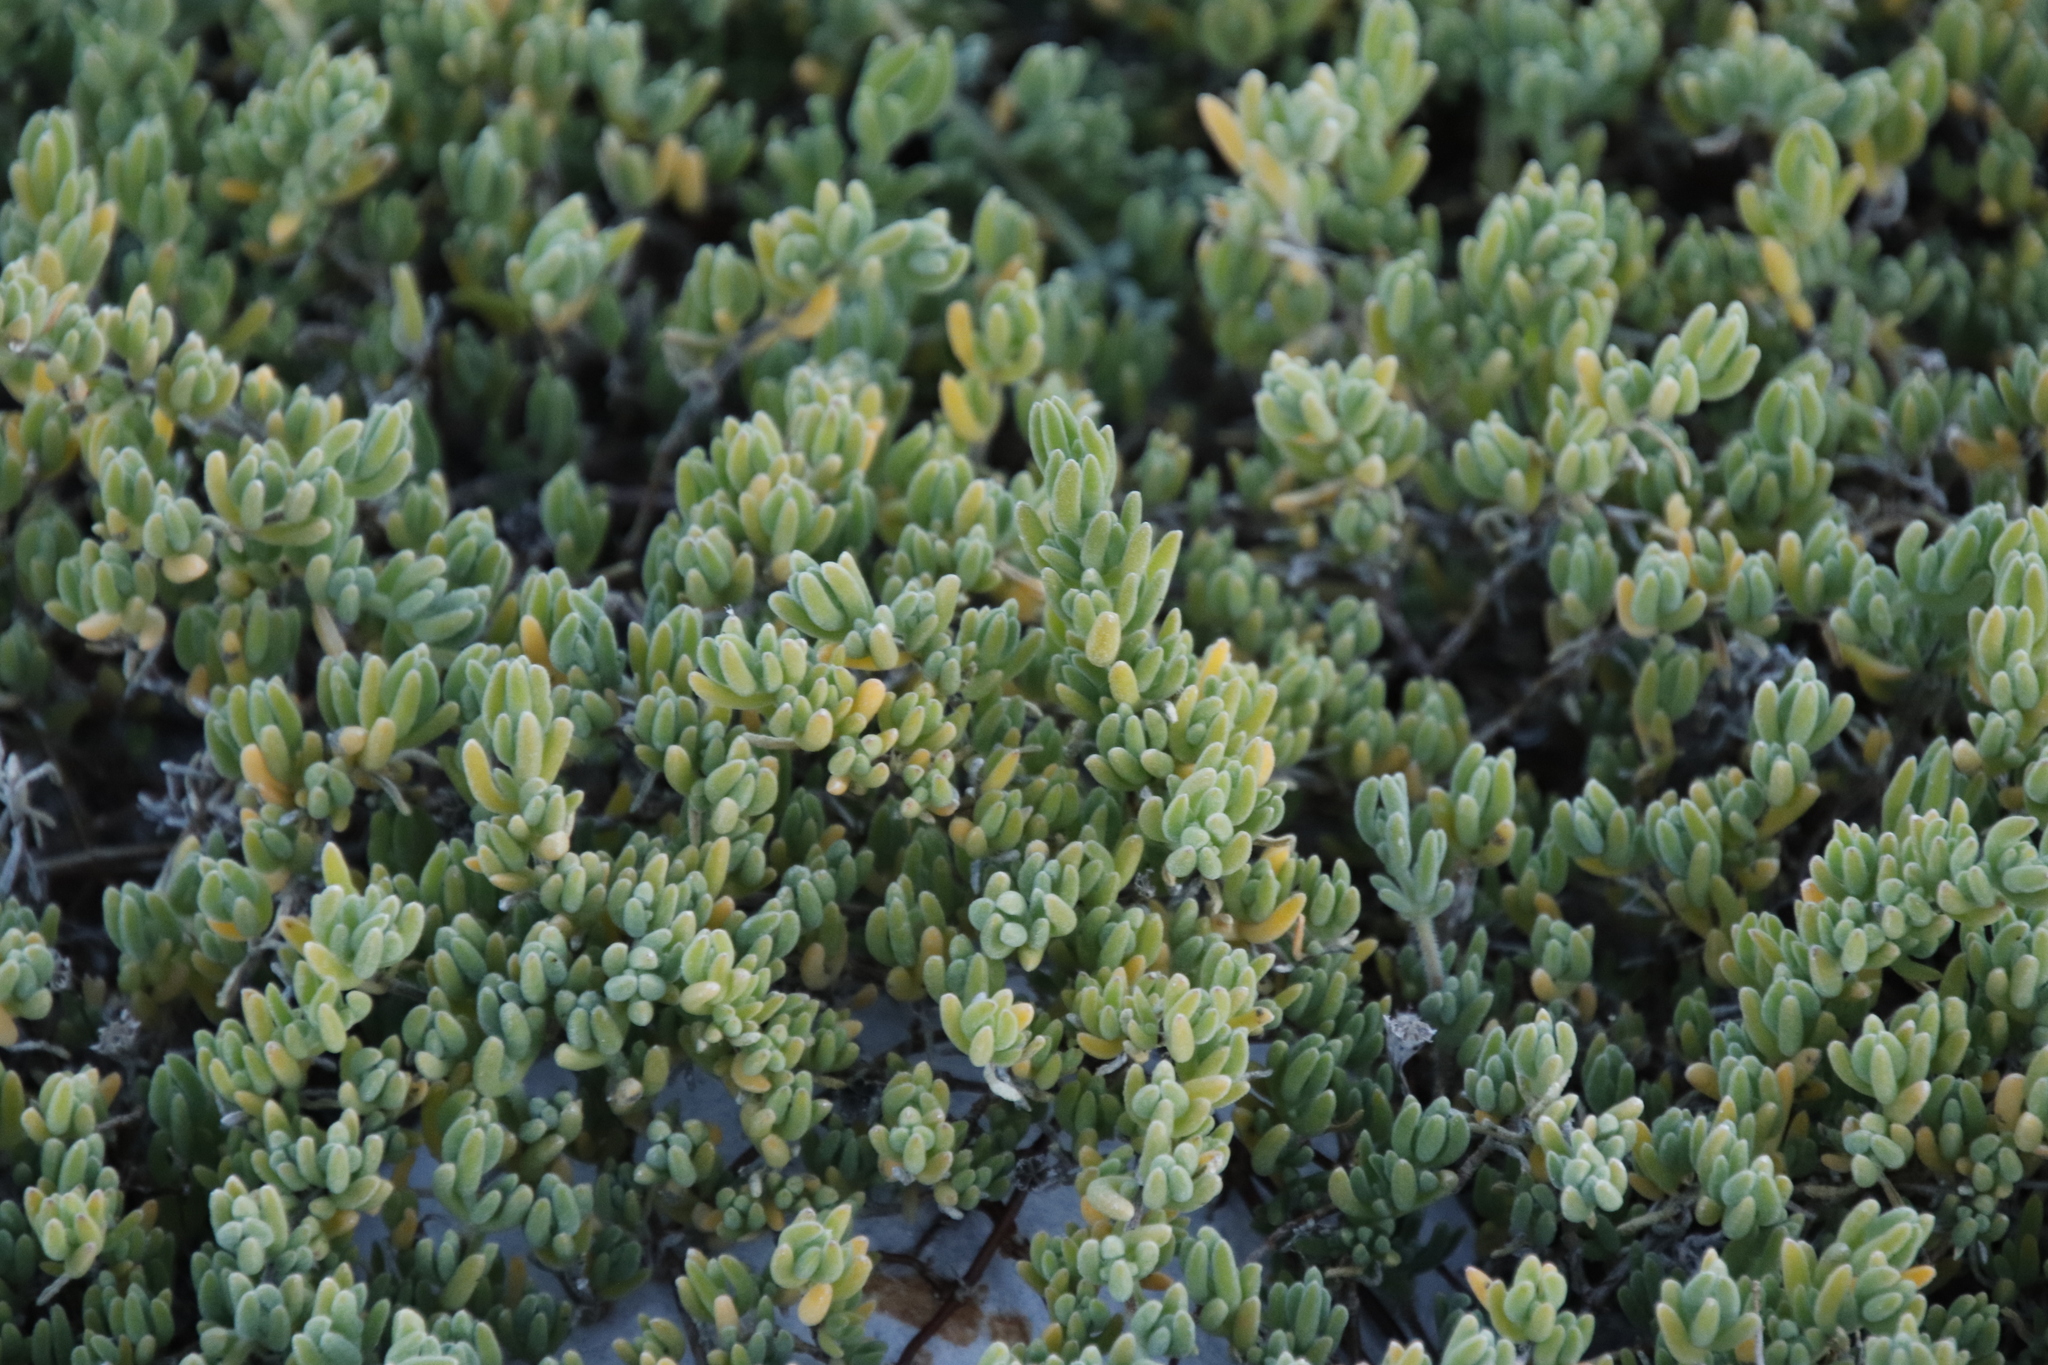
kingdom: Plantae
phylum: Tracheophyta
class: Magnoliopsida
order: Caryophyllales
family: Aizoaceae
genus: Drosanthemum
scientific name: Drosanthemum candens
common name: Rodondo-creeper
